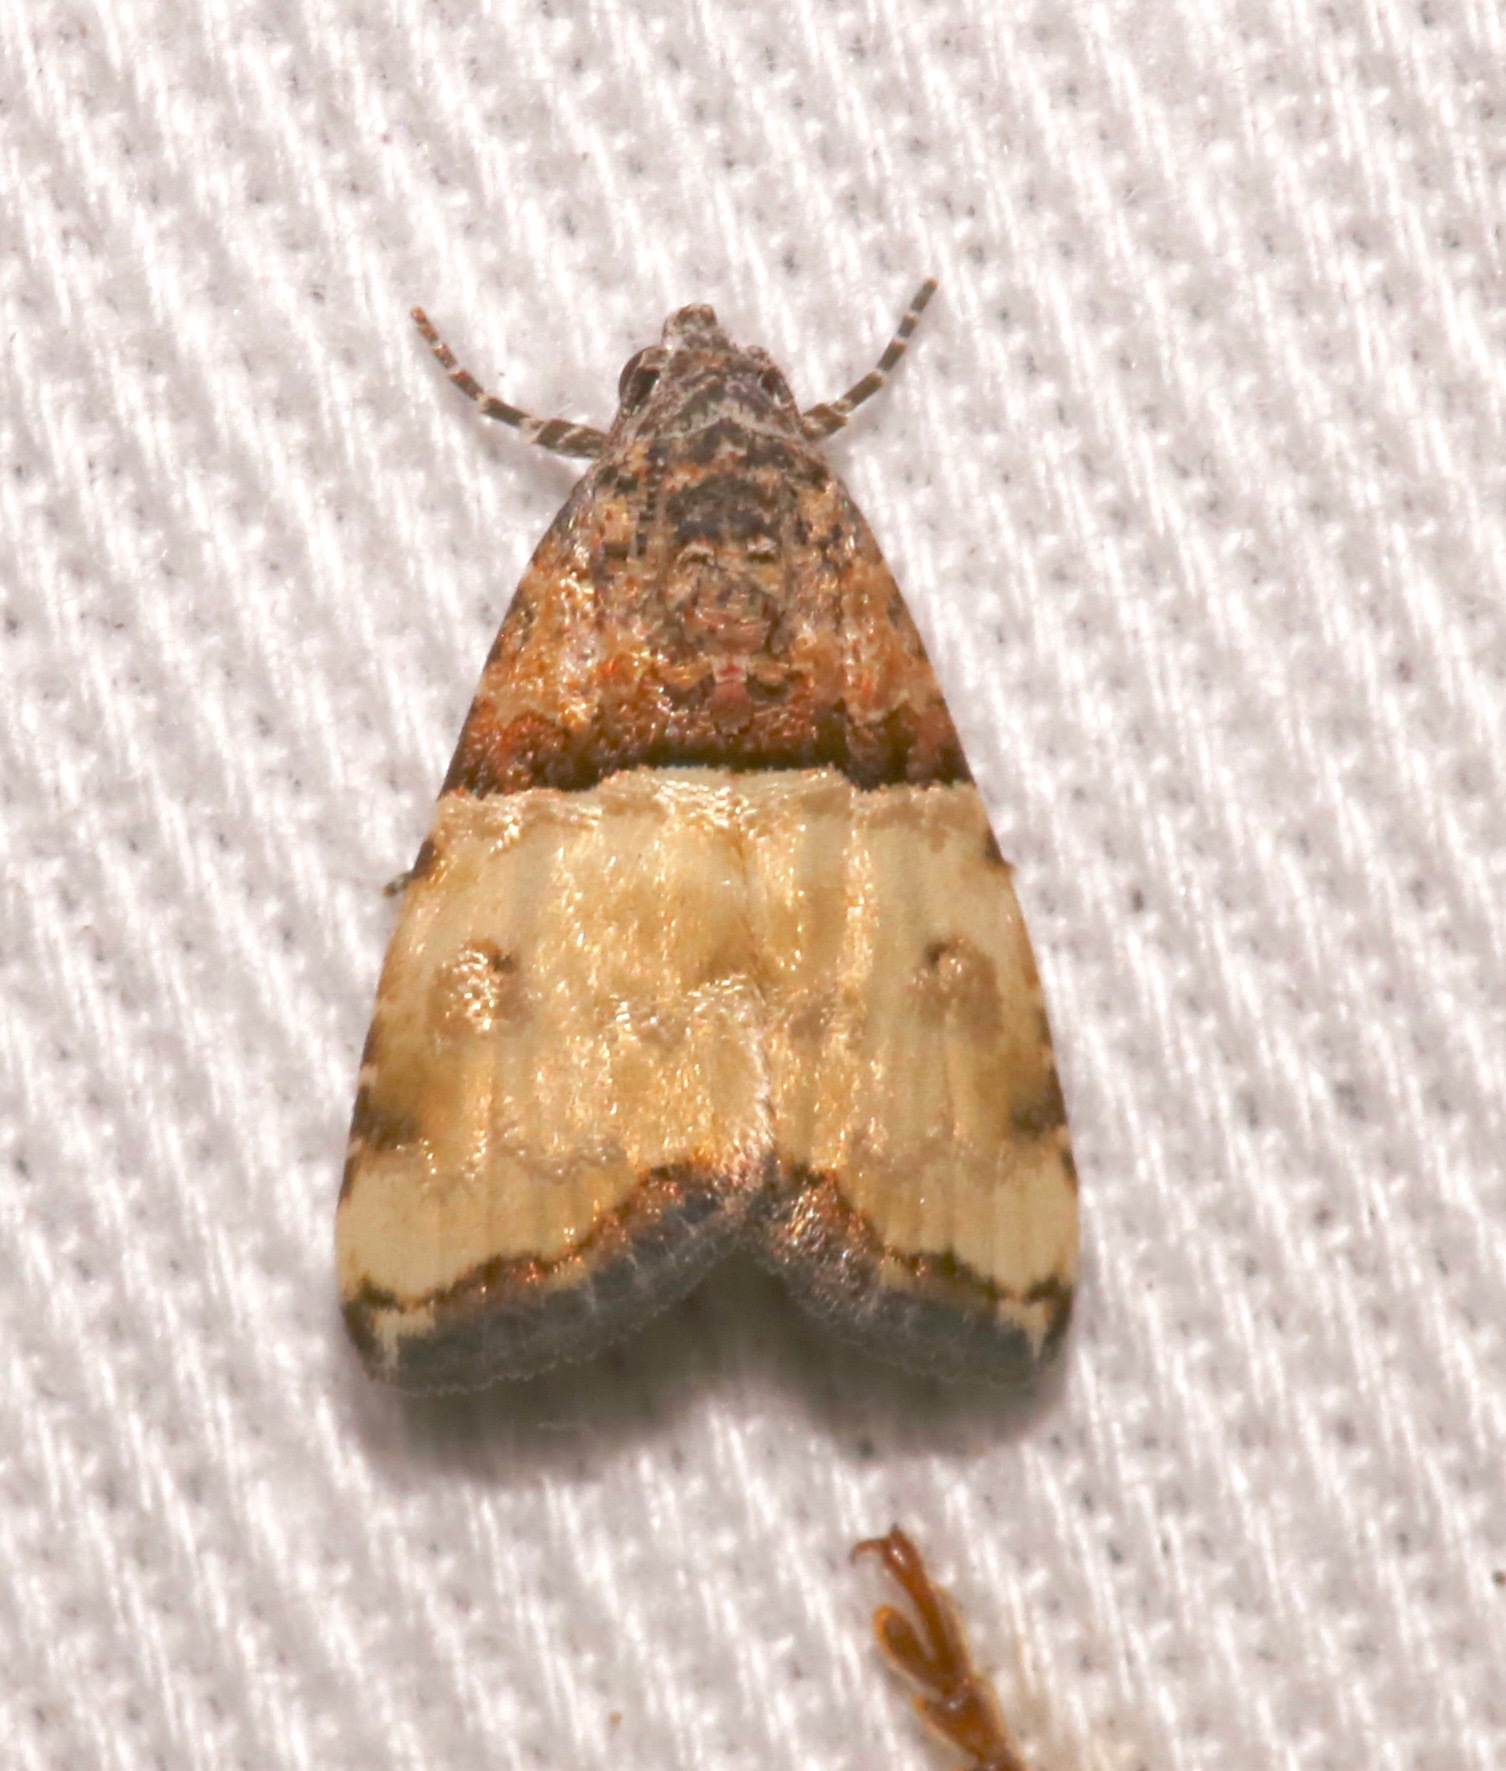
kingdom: Animalia
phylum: Arthropoda
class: Insecta
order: Lepidoptera
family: Noctuidae
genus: Cobubatha
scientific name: Cobubatha dividua
